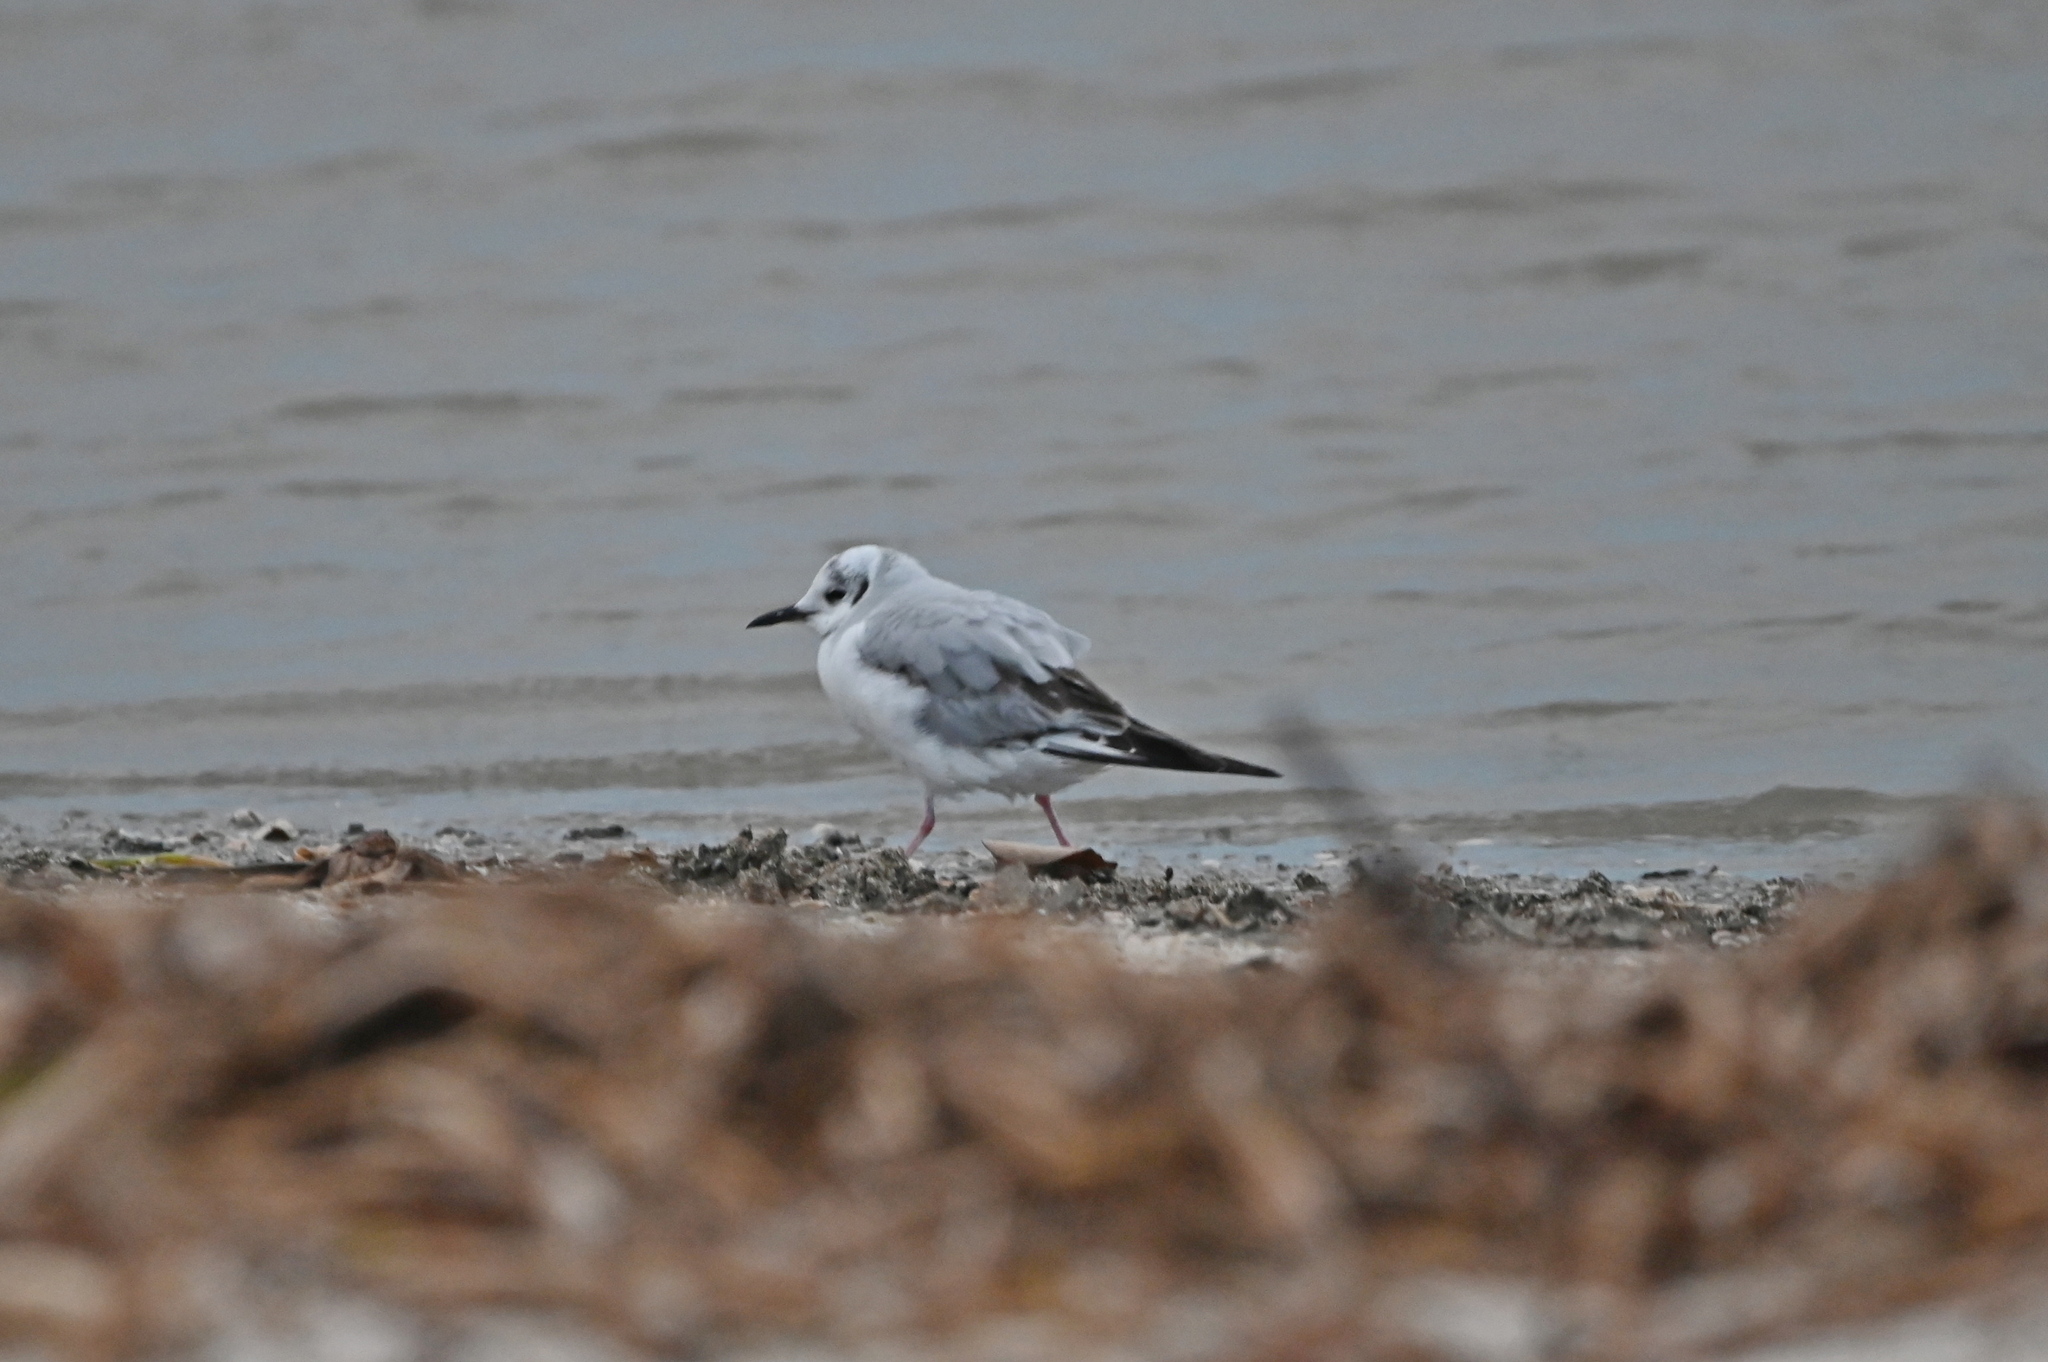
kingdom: Animalia
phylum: Chordata
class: Aves
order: Charadriiformes
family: Laridae
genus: Chroicocephalus
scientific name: Chroicocephalus philadelphia
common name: Bonaparte's gull
